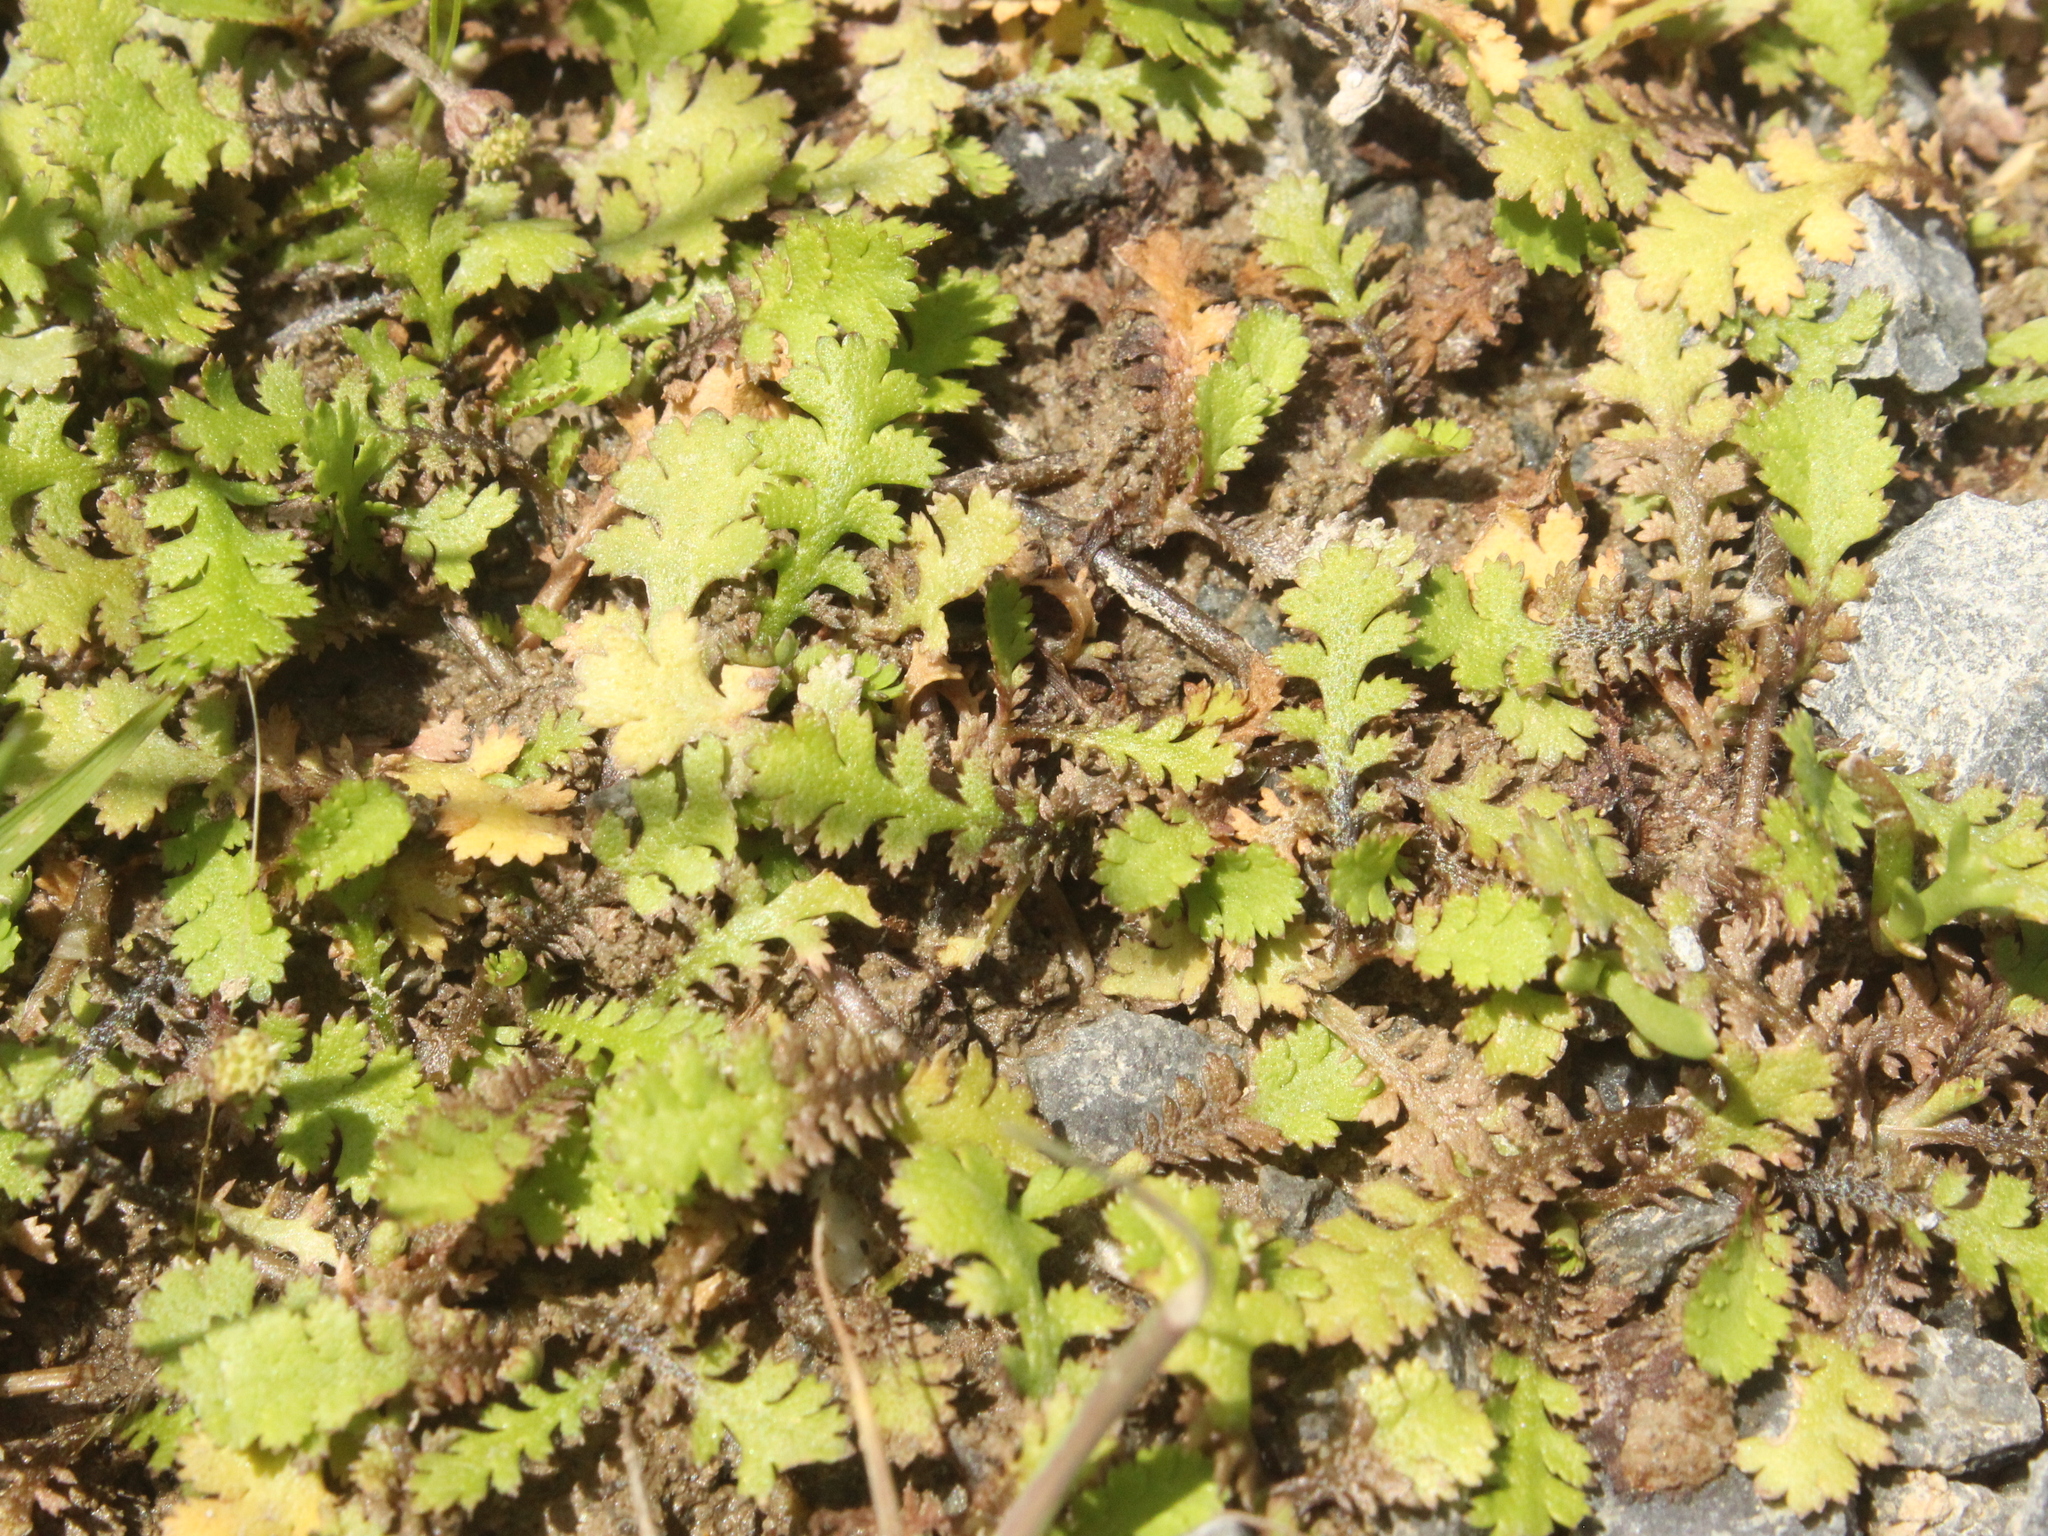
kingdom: Plantae
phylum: Tracheophyta
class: Magnoliopsida
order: Asterales
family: Asteraceae
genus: Leptinella
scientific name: Leptinella squalida
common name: New zealand brass-buttons
